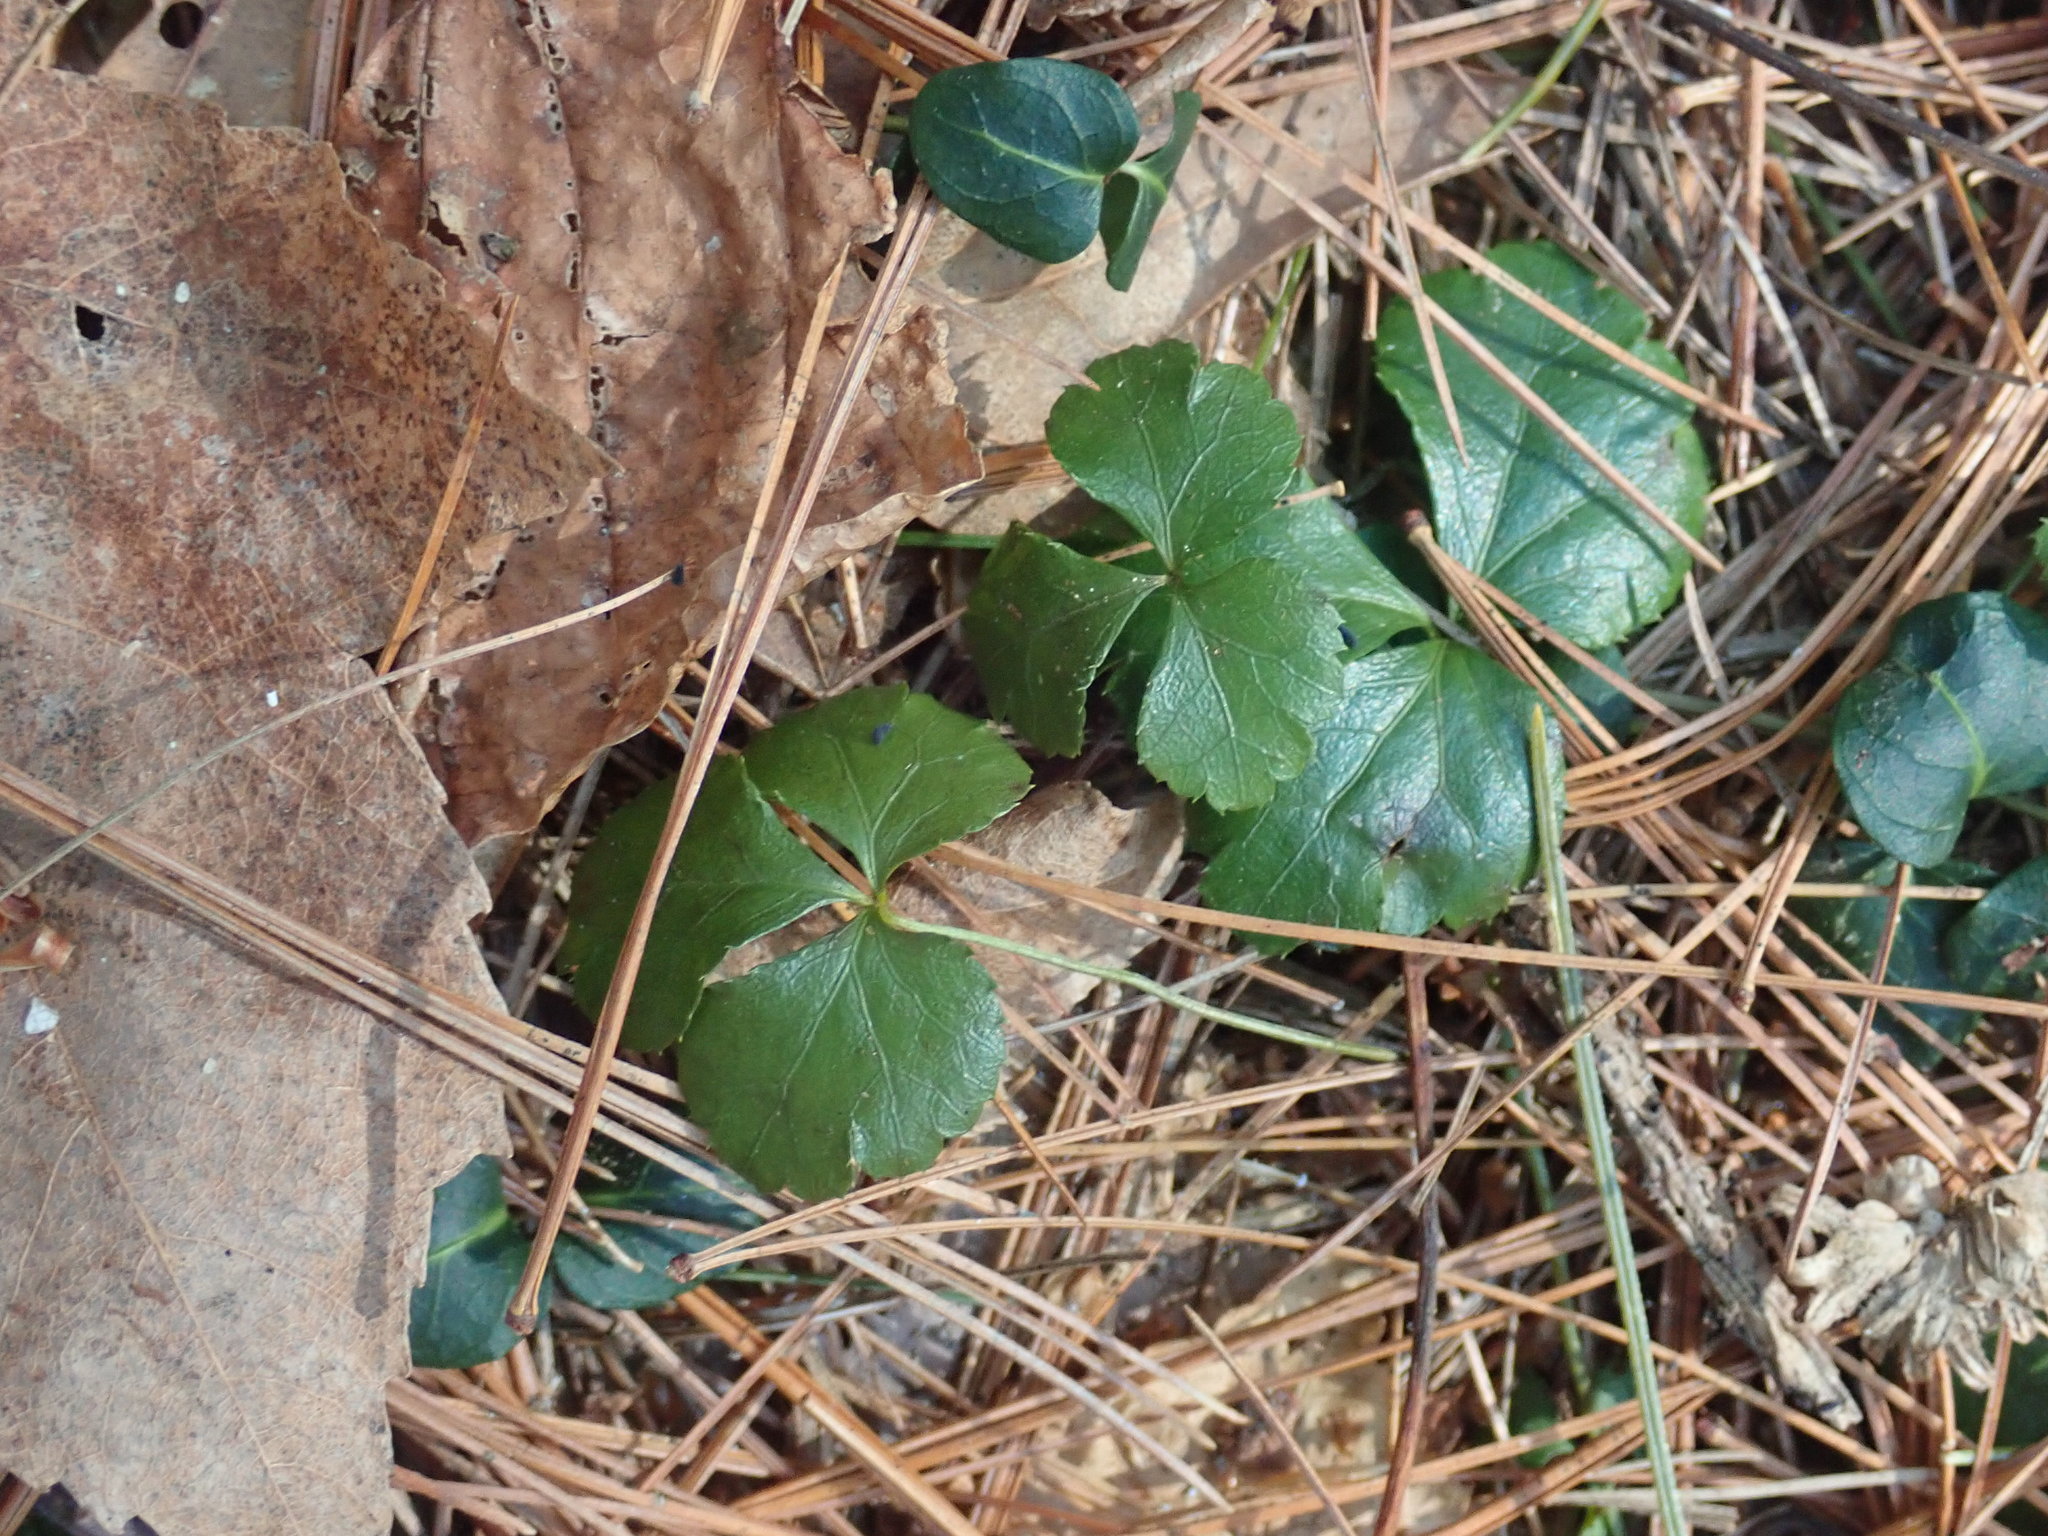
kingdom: Plantae
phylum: Tracheophyta
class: Magnoliopsida
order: Ranunculales
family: Ranunculaceae
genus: Coptis
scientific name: Coptis trifolia
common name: Canker-root
